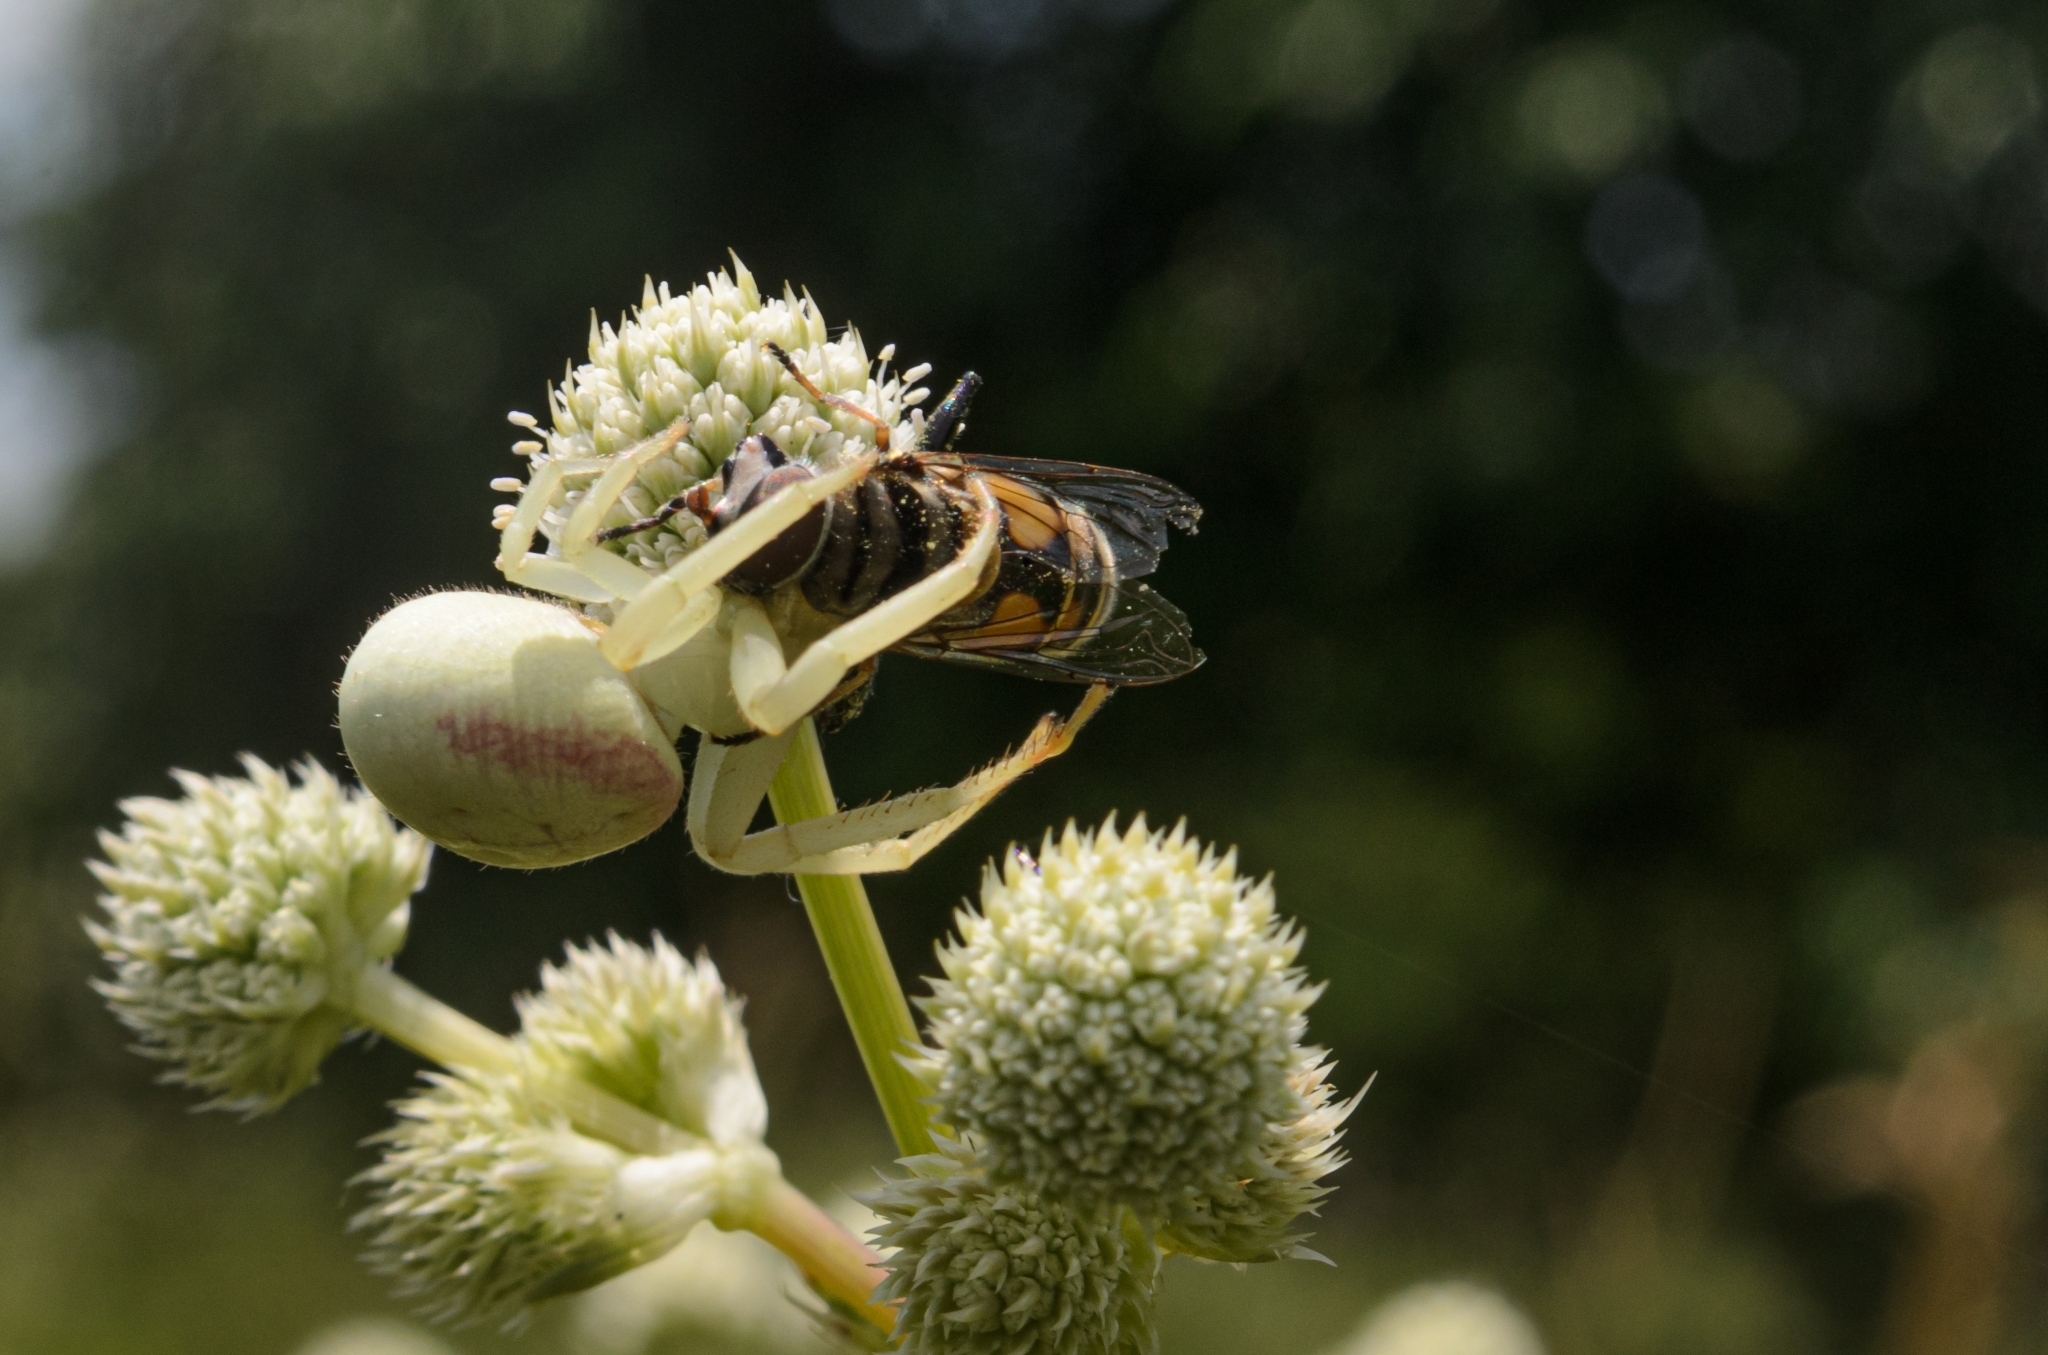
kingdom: Animalia
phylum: Arthropoda
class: Arachnida
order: Araneae
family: Thomisidae
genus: Misumenops
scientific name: Misumenops callinurus
